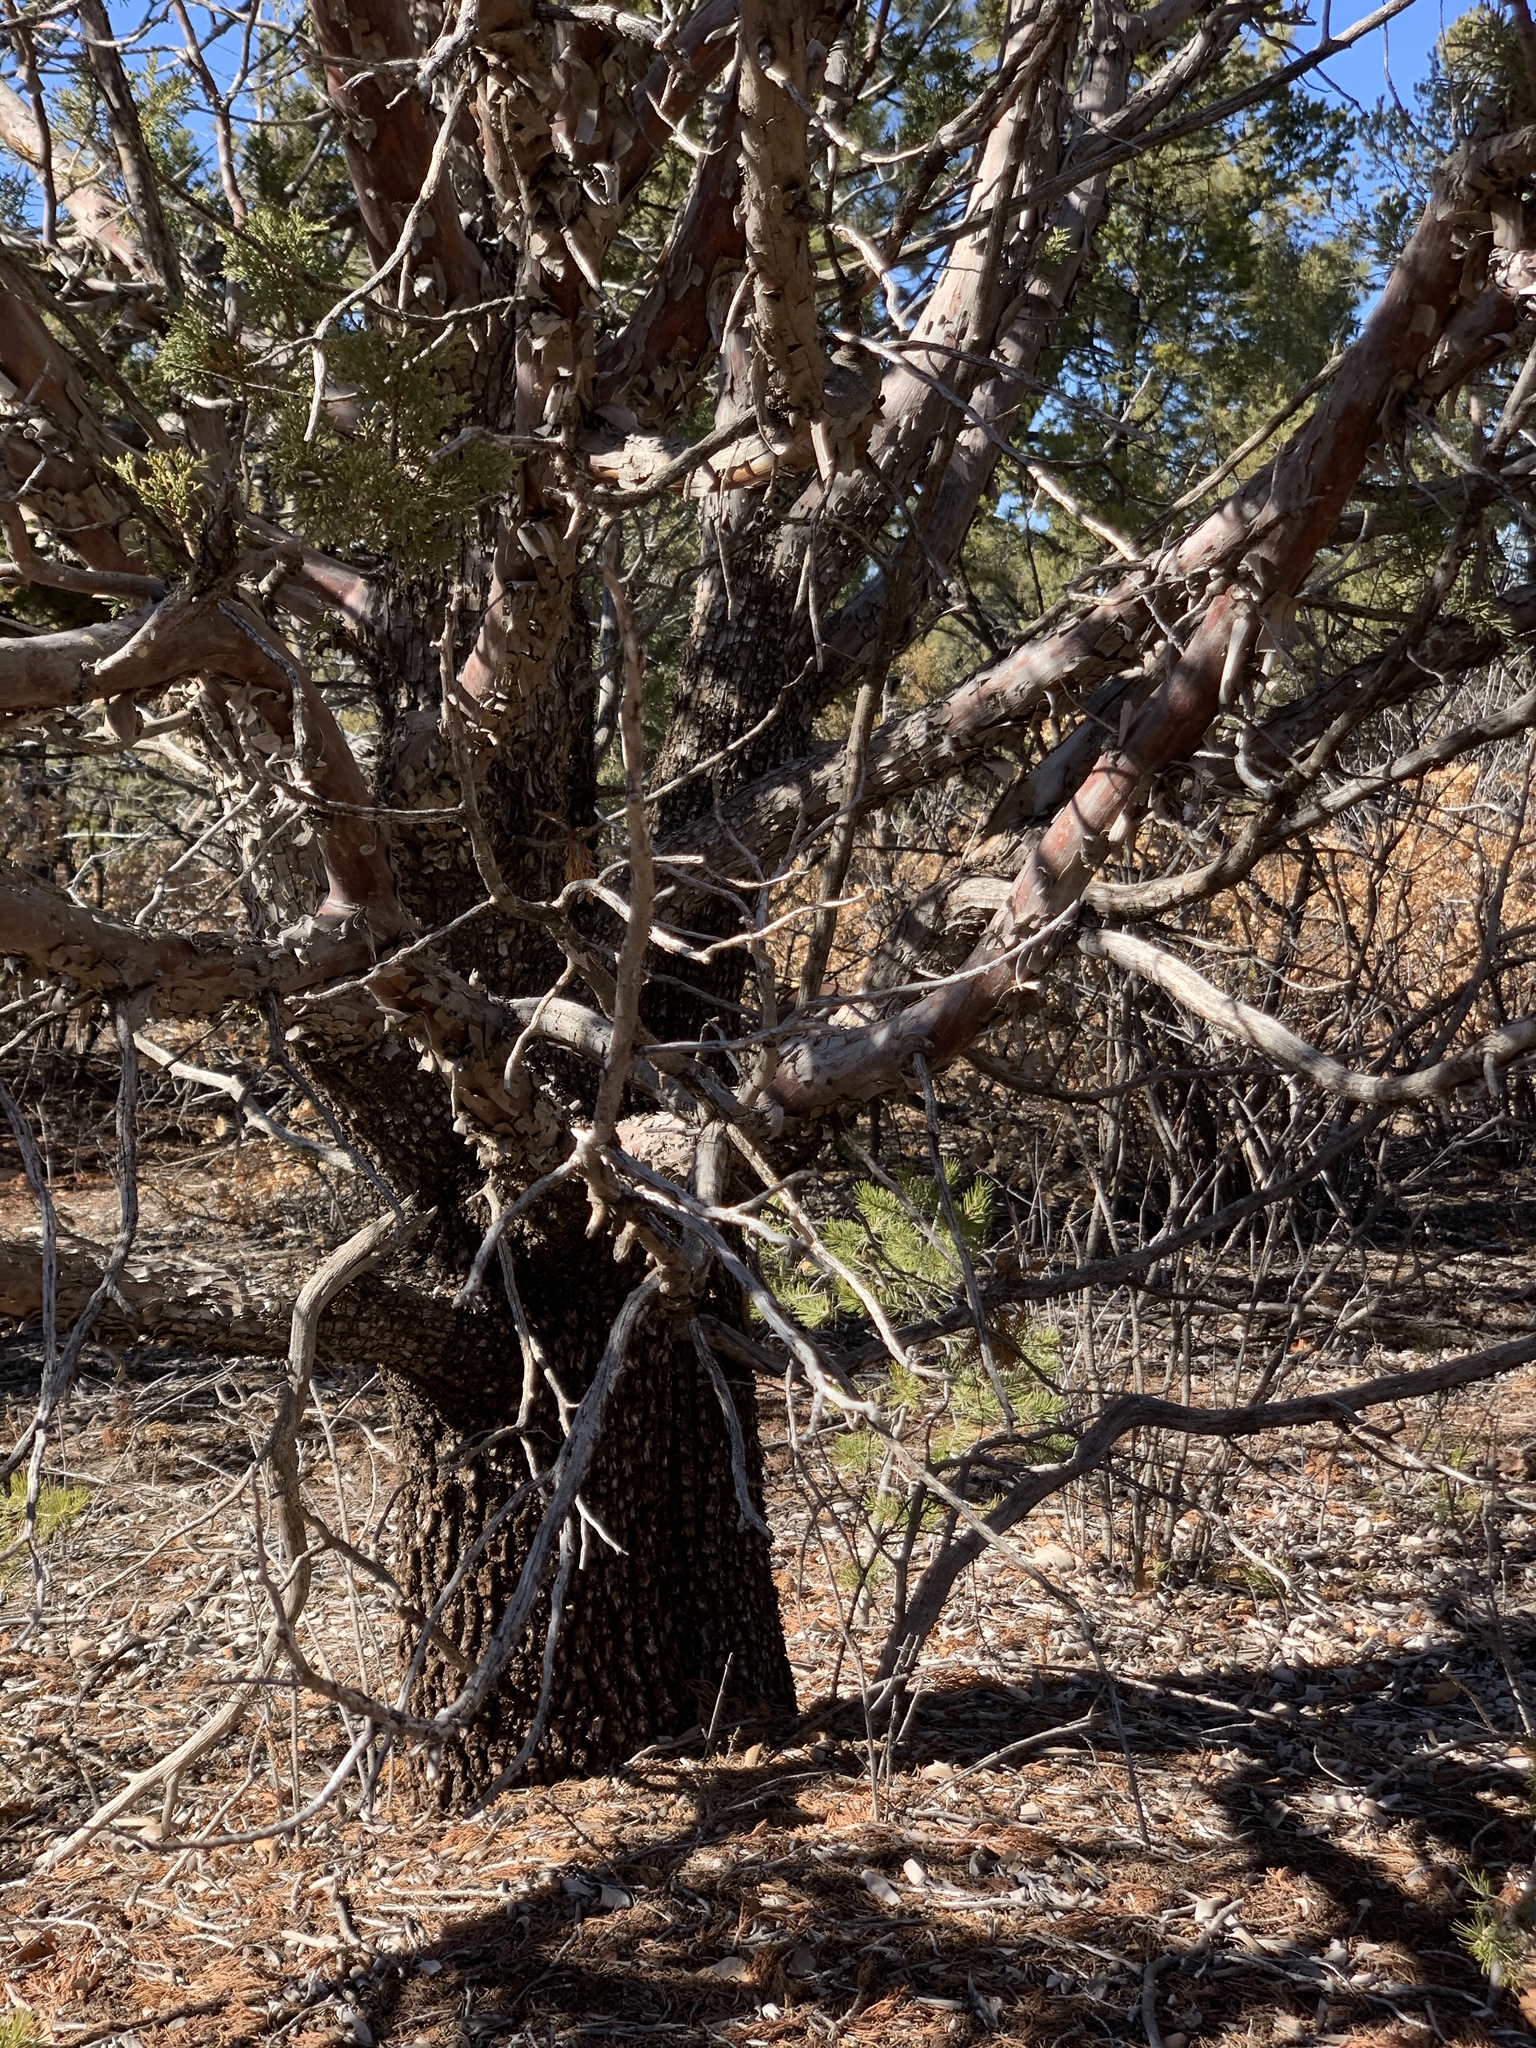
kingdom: Plantae
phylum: Tracheophyta
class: Pinopsida
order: Pinales
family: Cupressaceae
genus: Juniperus
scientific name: Juniperus deppeana
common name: Alligator juniper
